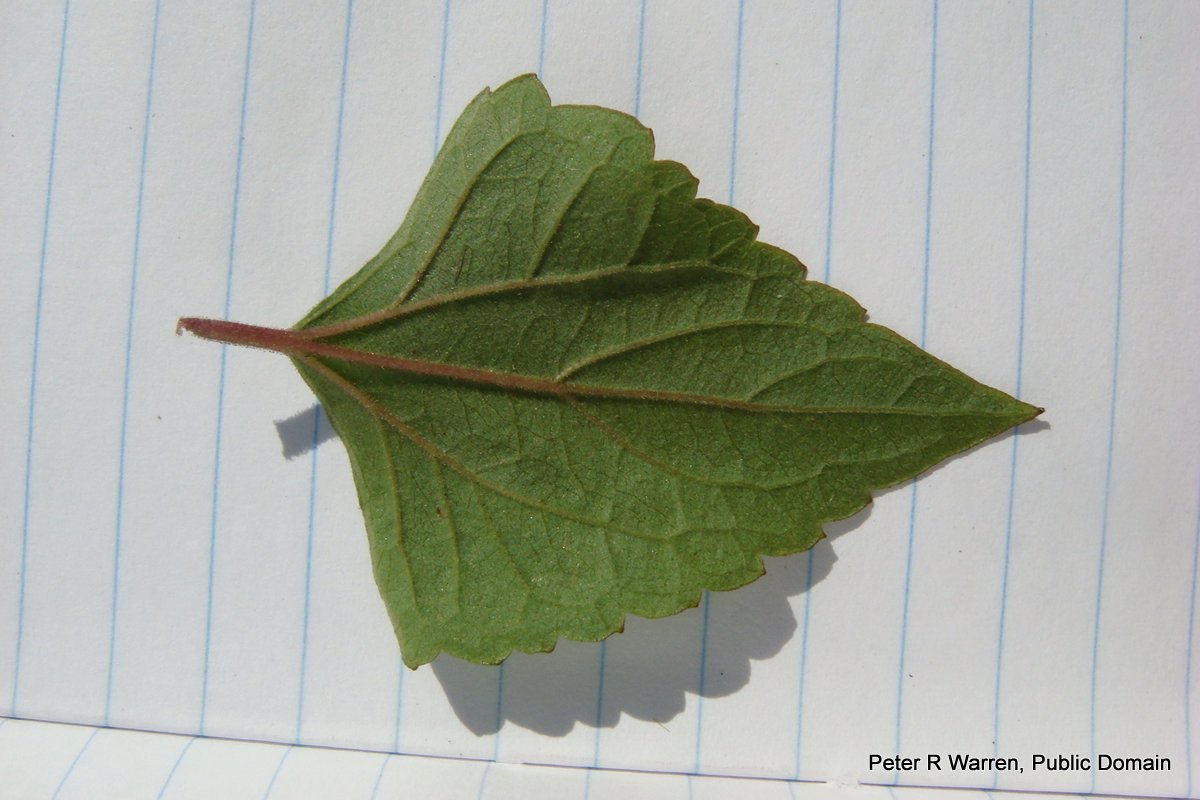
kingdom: Plantae
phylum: Tracheophyta
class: Magnoliopsida
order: Asterales
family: Asteraceae
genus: Ageratina
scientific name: Ageratina adenophora
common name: Sticky snakeroot
